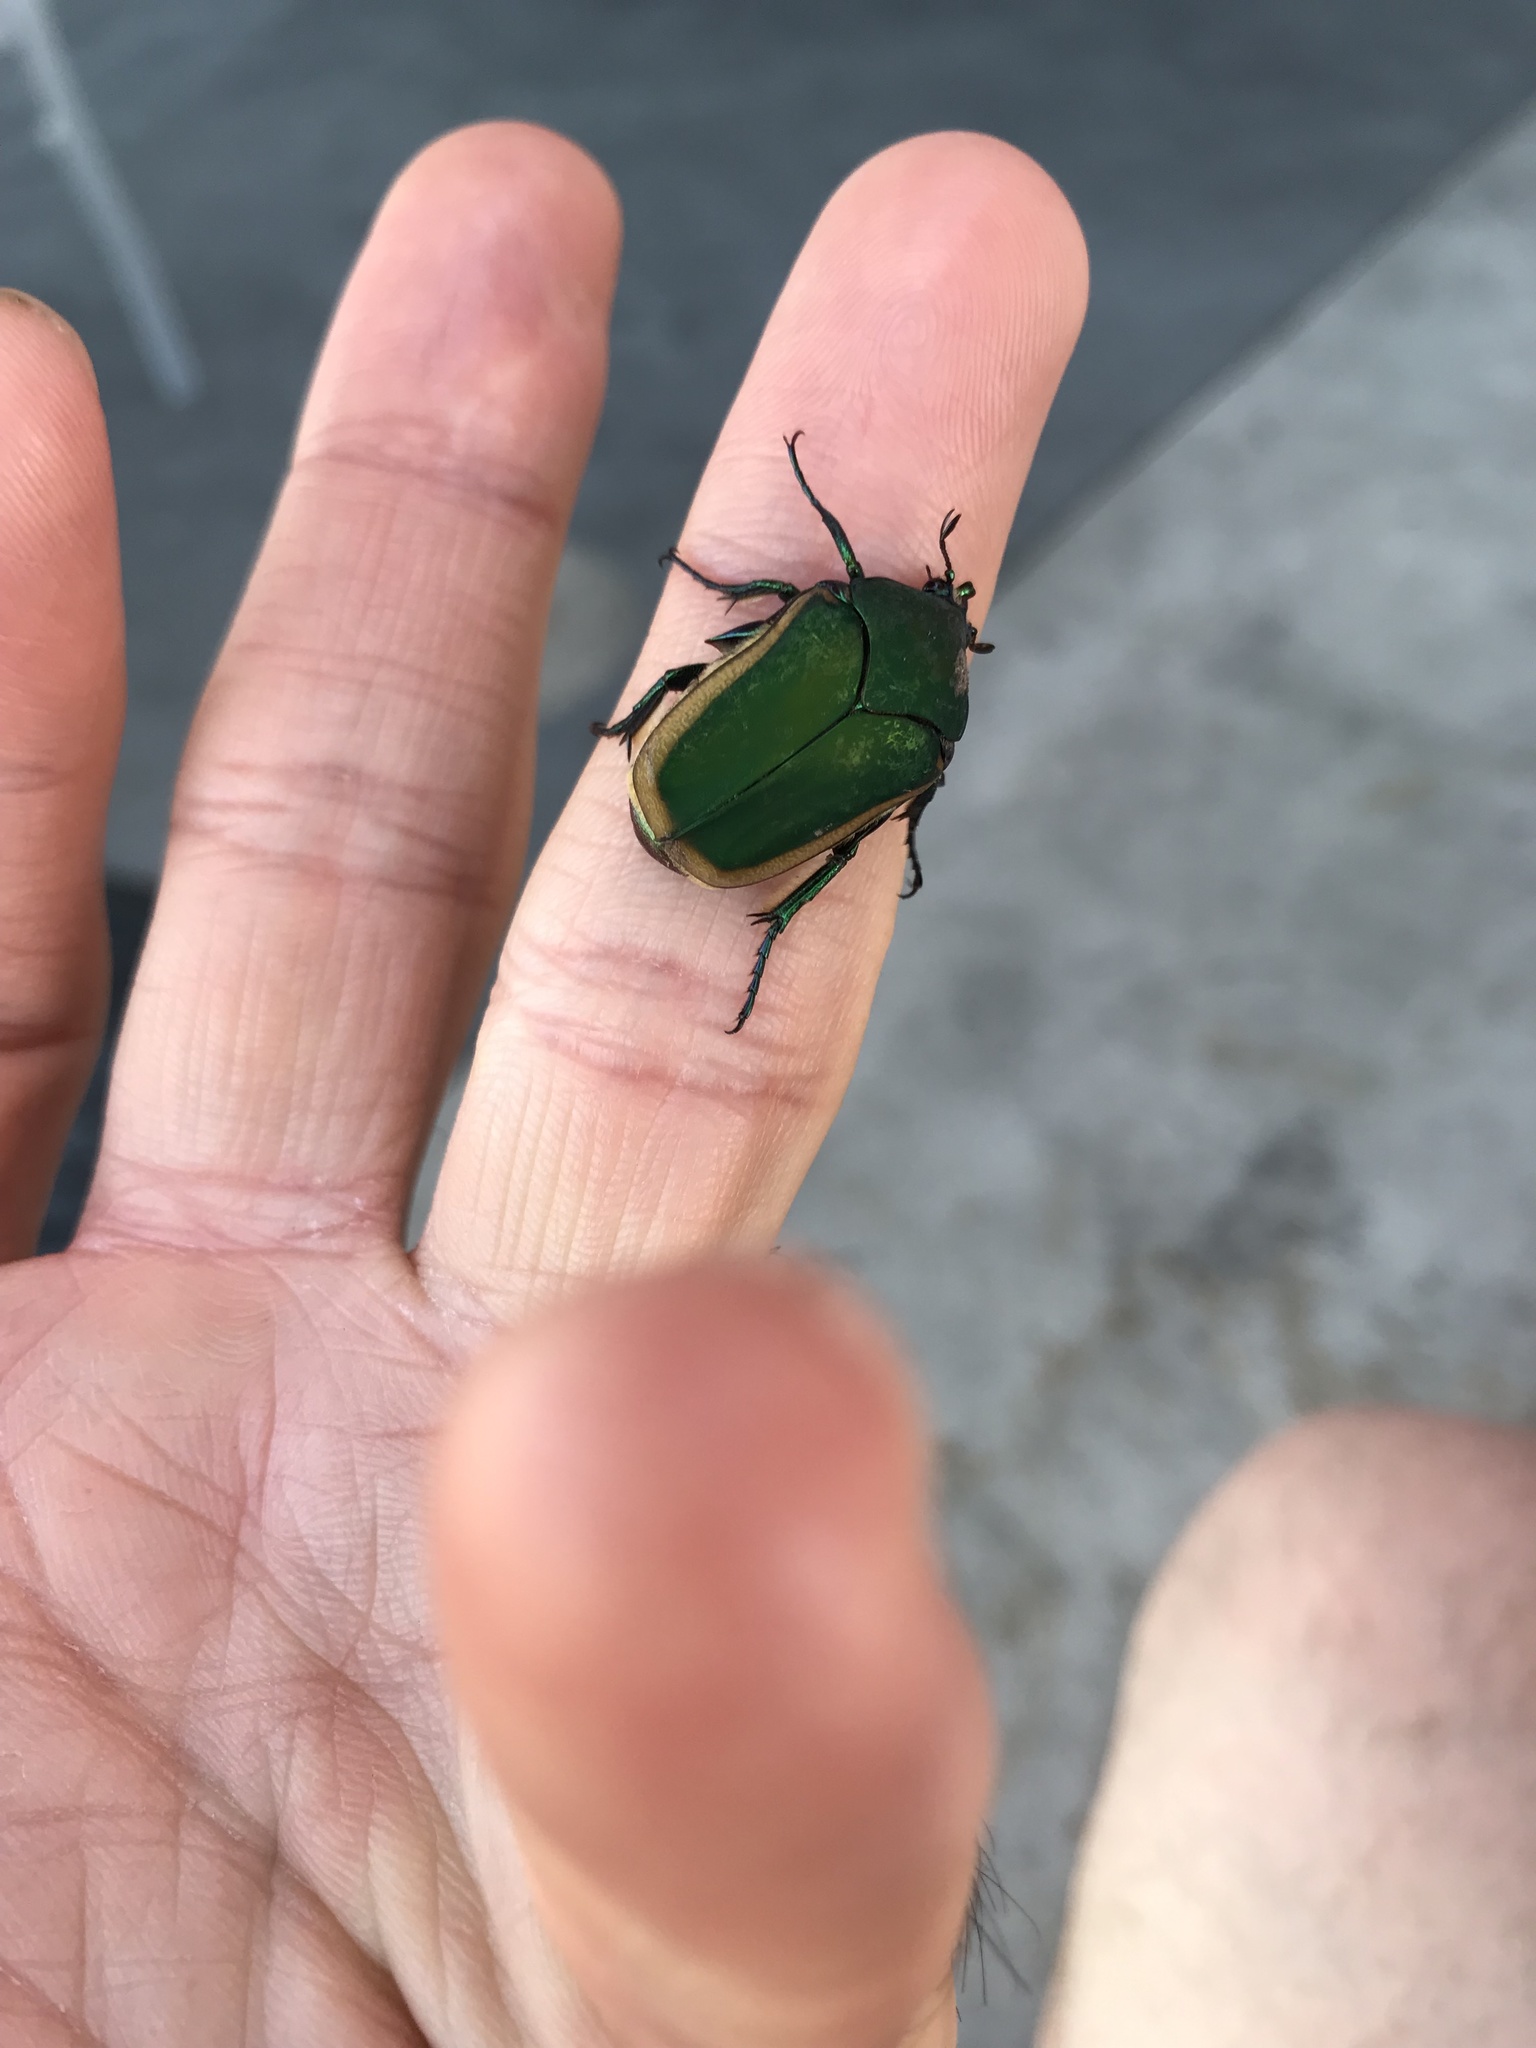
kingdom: Animalia
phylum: Arthropoda
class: Insecta
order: Coleoptera
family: Scarabaeidae
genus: Cotinis
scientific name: Cotinis mutabilis
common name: Figeater beetle
